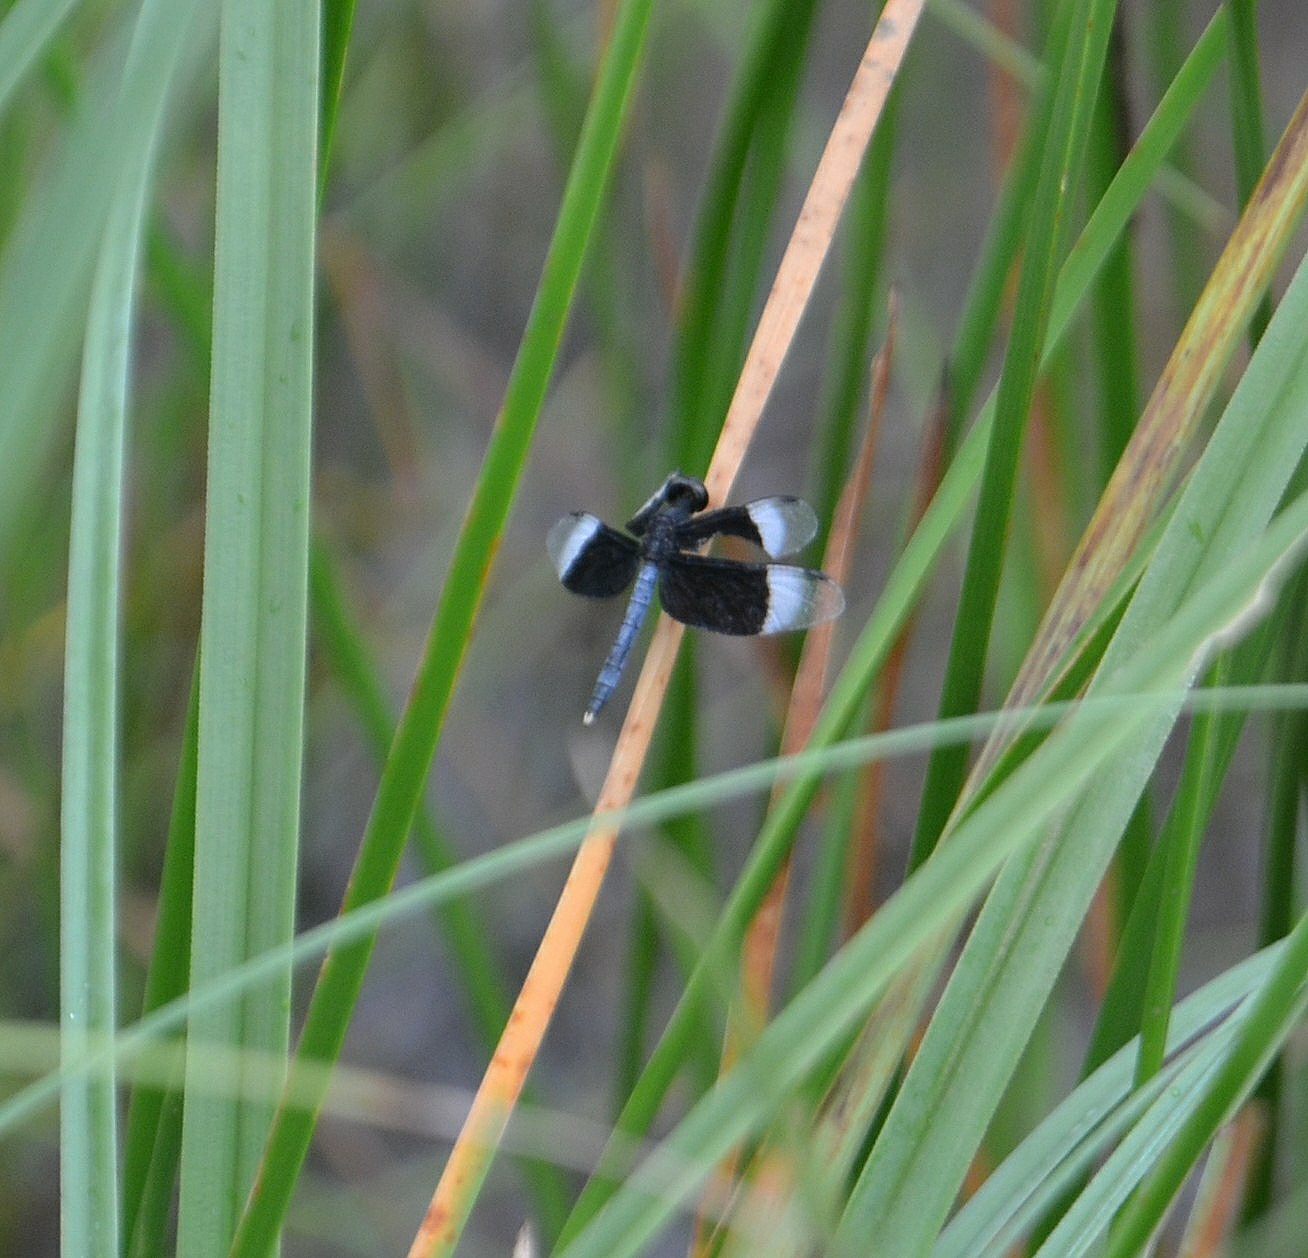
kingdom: Animalia
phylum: Arthropoda
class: Insecta
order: Odonata
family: Libellulidae
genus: Neurothemis
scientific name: Neurothemis tullia
